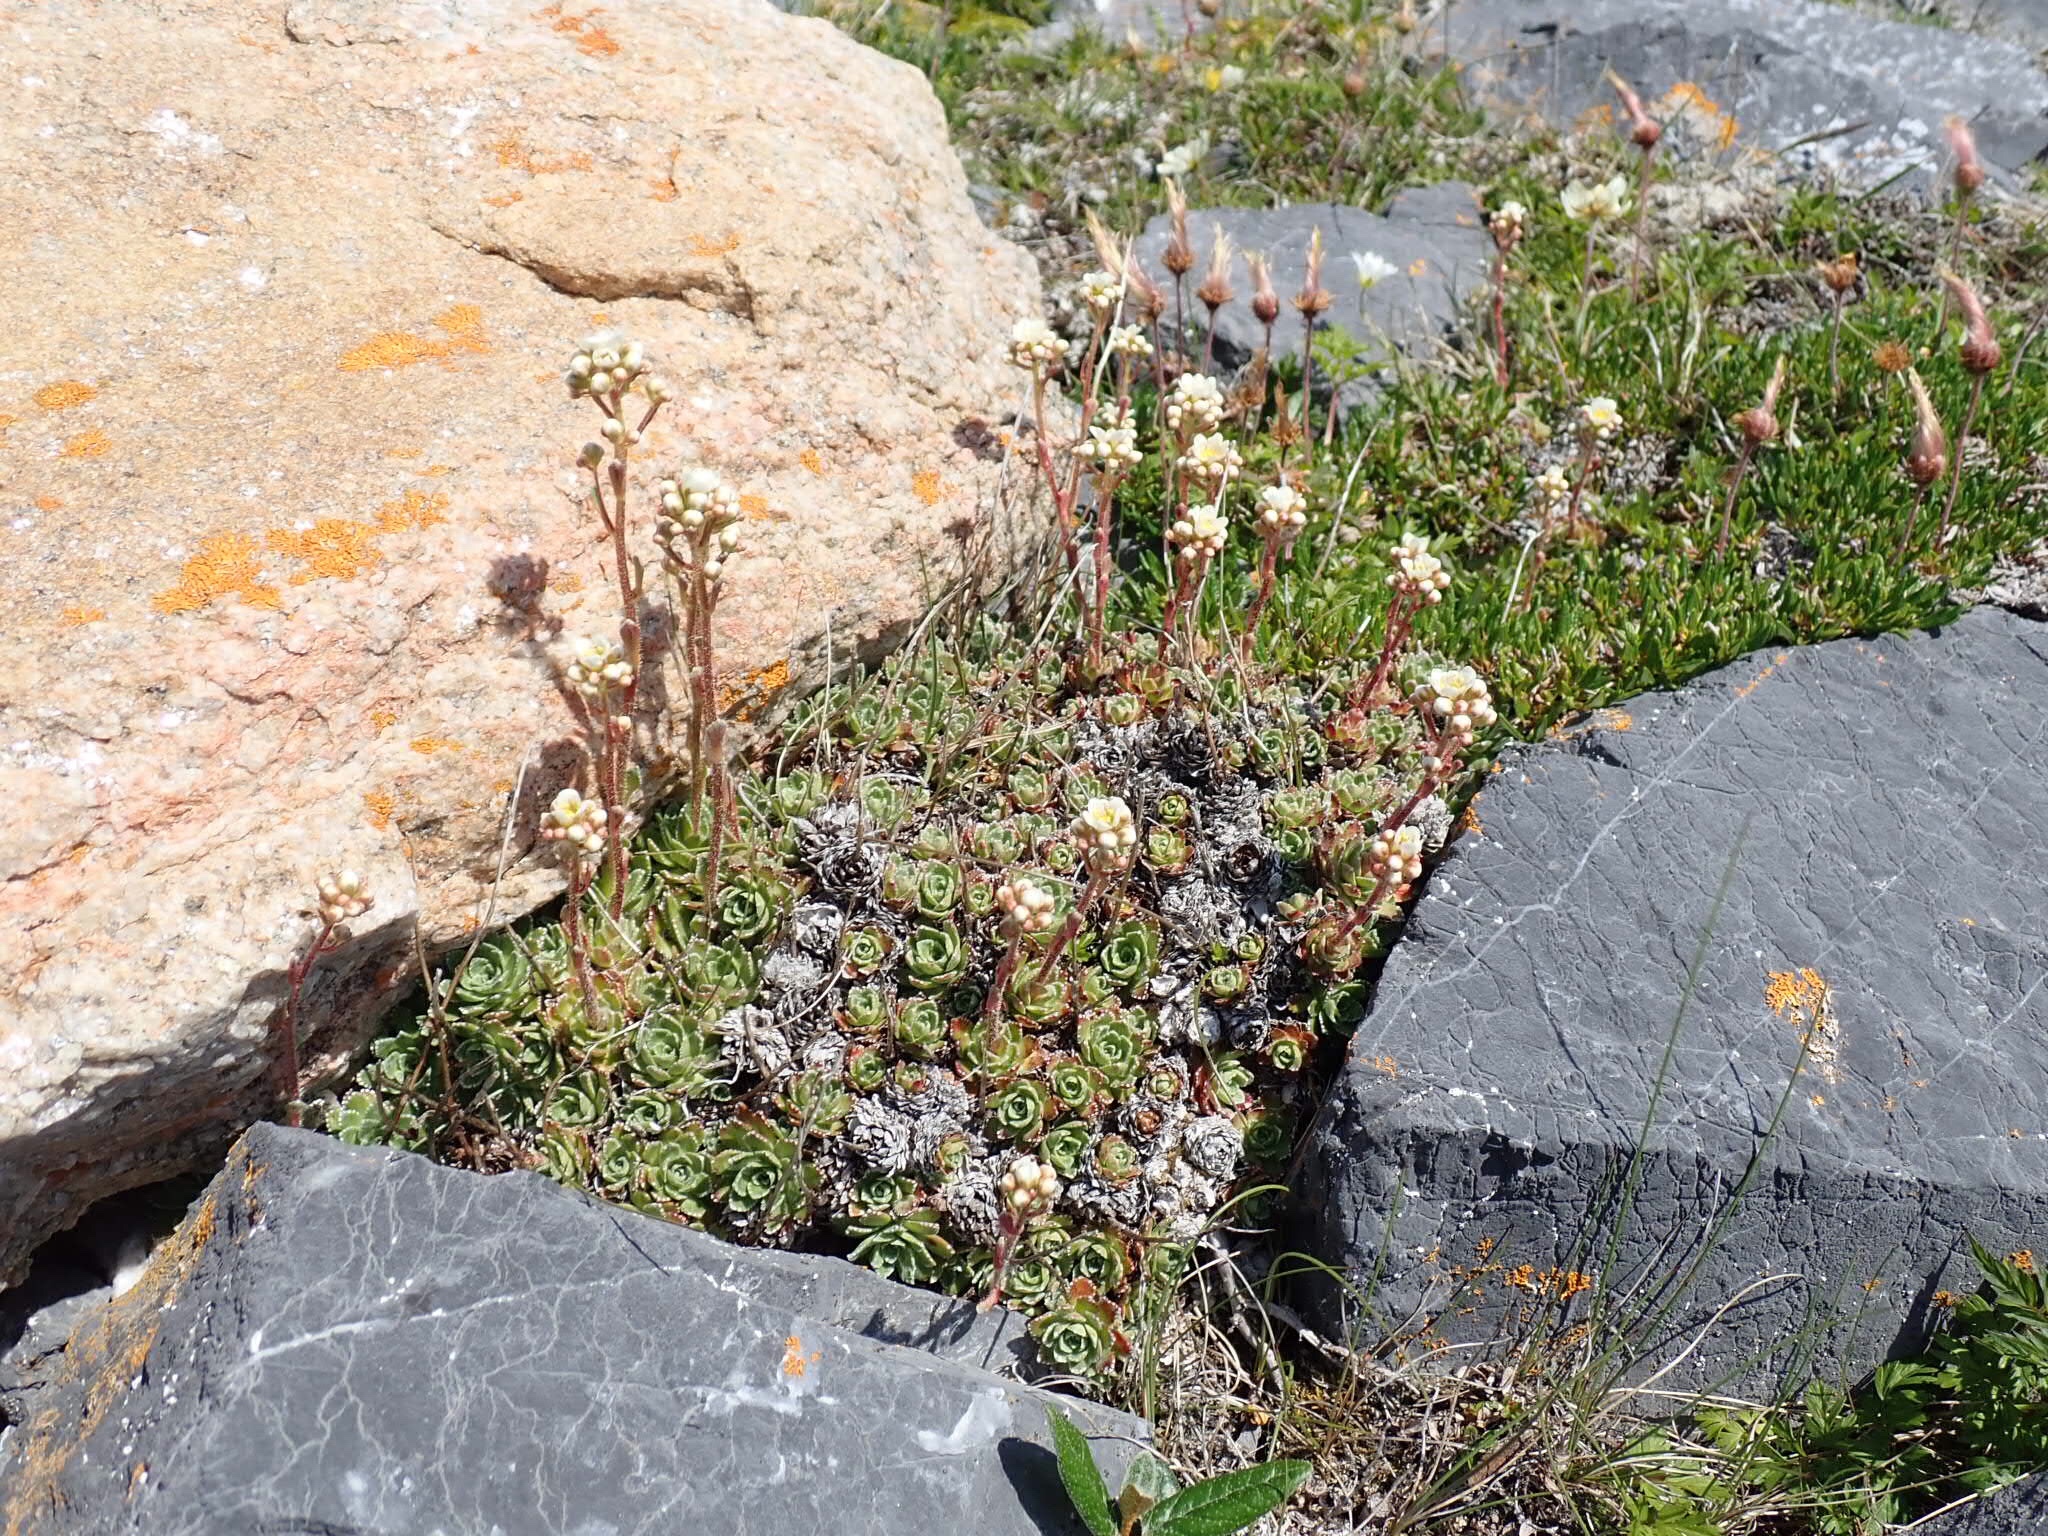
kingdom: Plantae
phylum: Tracheophyta
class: Magnoliopsida
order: Saxifragales
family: Saxifragaceae
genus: Saxifraga
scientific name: Saxifraga paniculata
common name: Livelong saxifrage
